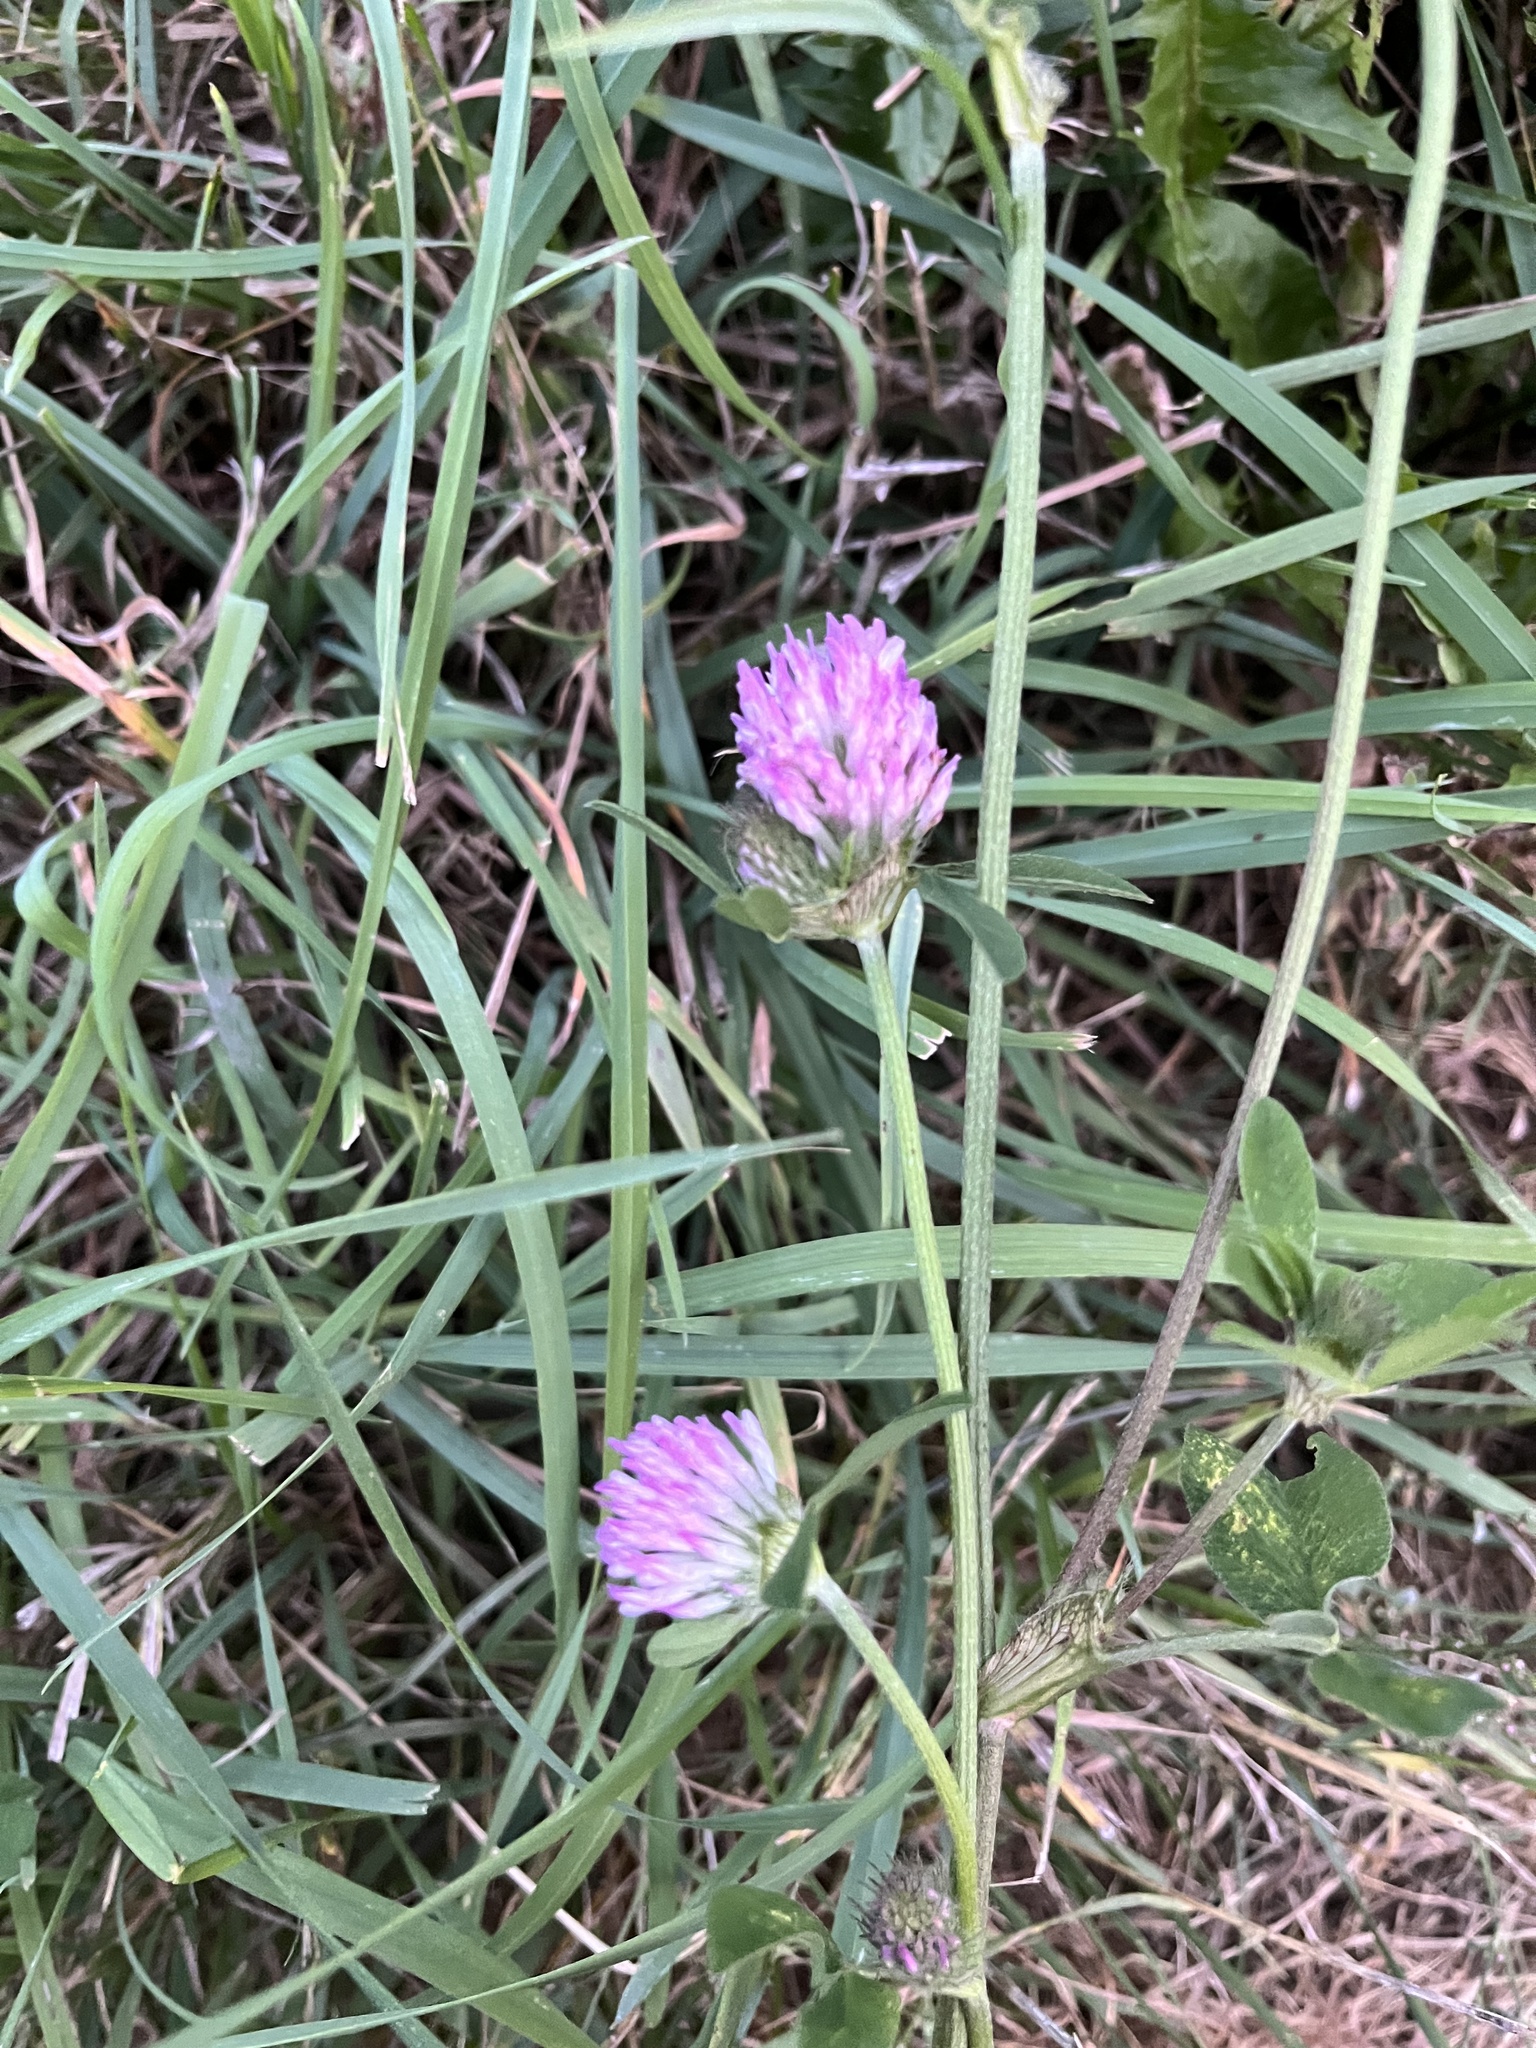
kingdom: Plantae
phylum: Tracheophyta
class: Magnoliopsida
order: Fabales
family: Fabaceae
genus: Trifolium
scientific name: Trifolium pratense
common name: Red clover
